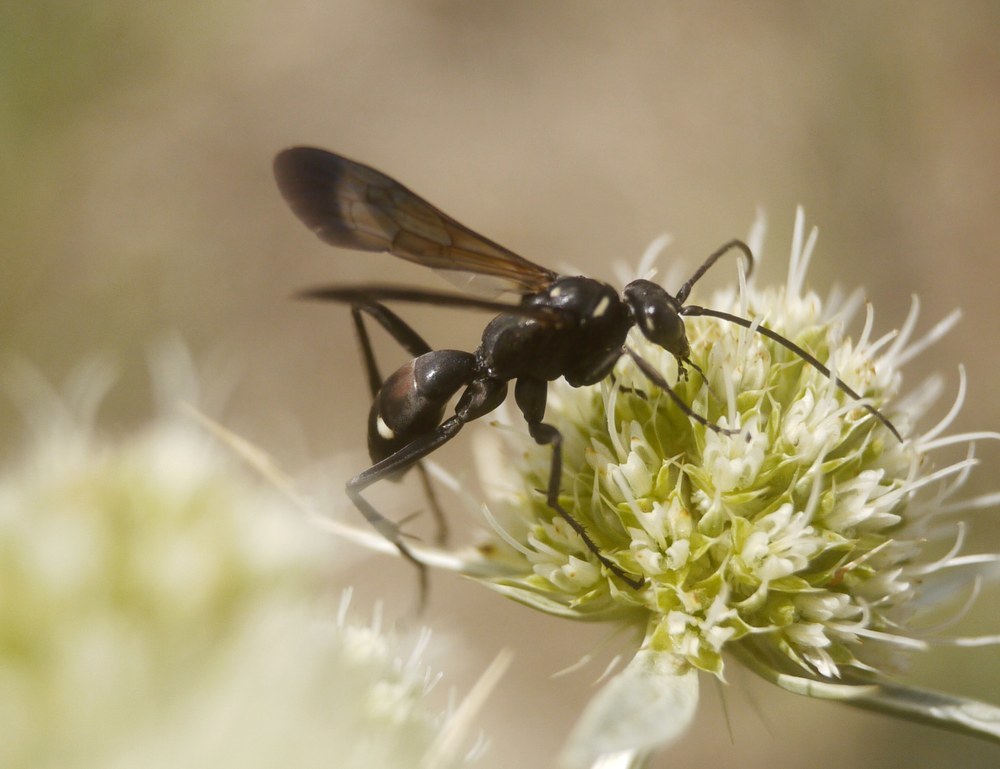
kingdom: Animalia
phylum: Arthropoda
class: Insecta
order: Hymenoptera
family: Pompilidae
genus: Cryptocheilus
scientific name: Cryptocheilus egregius
